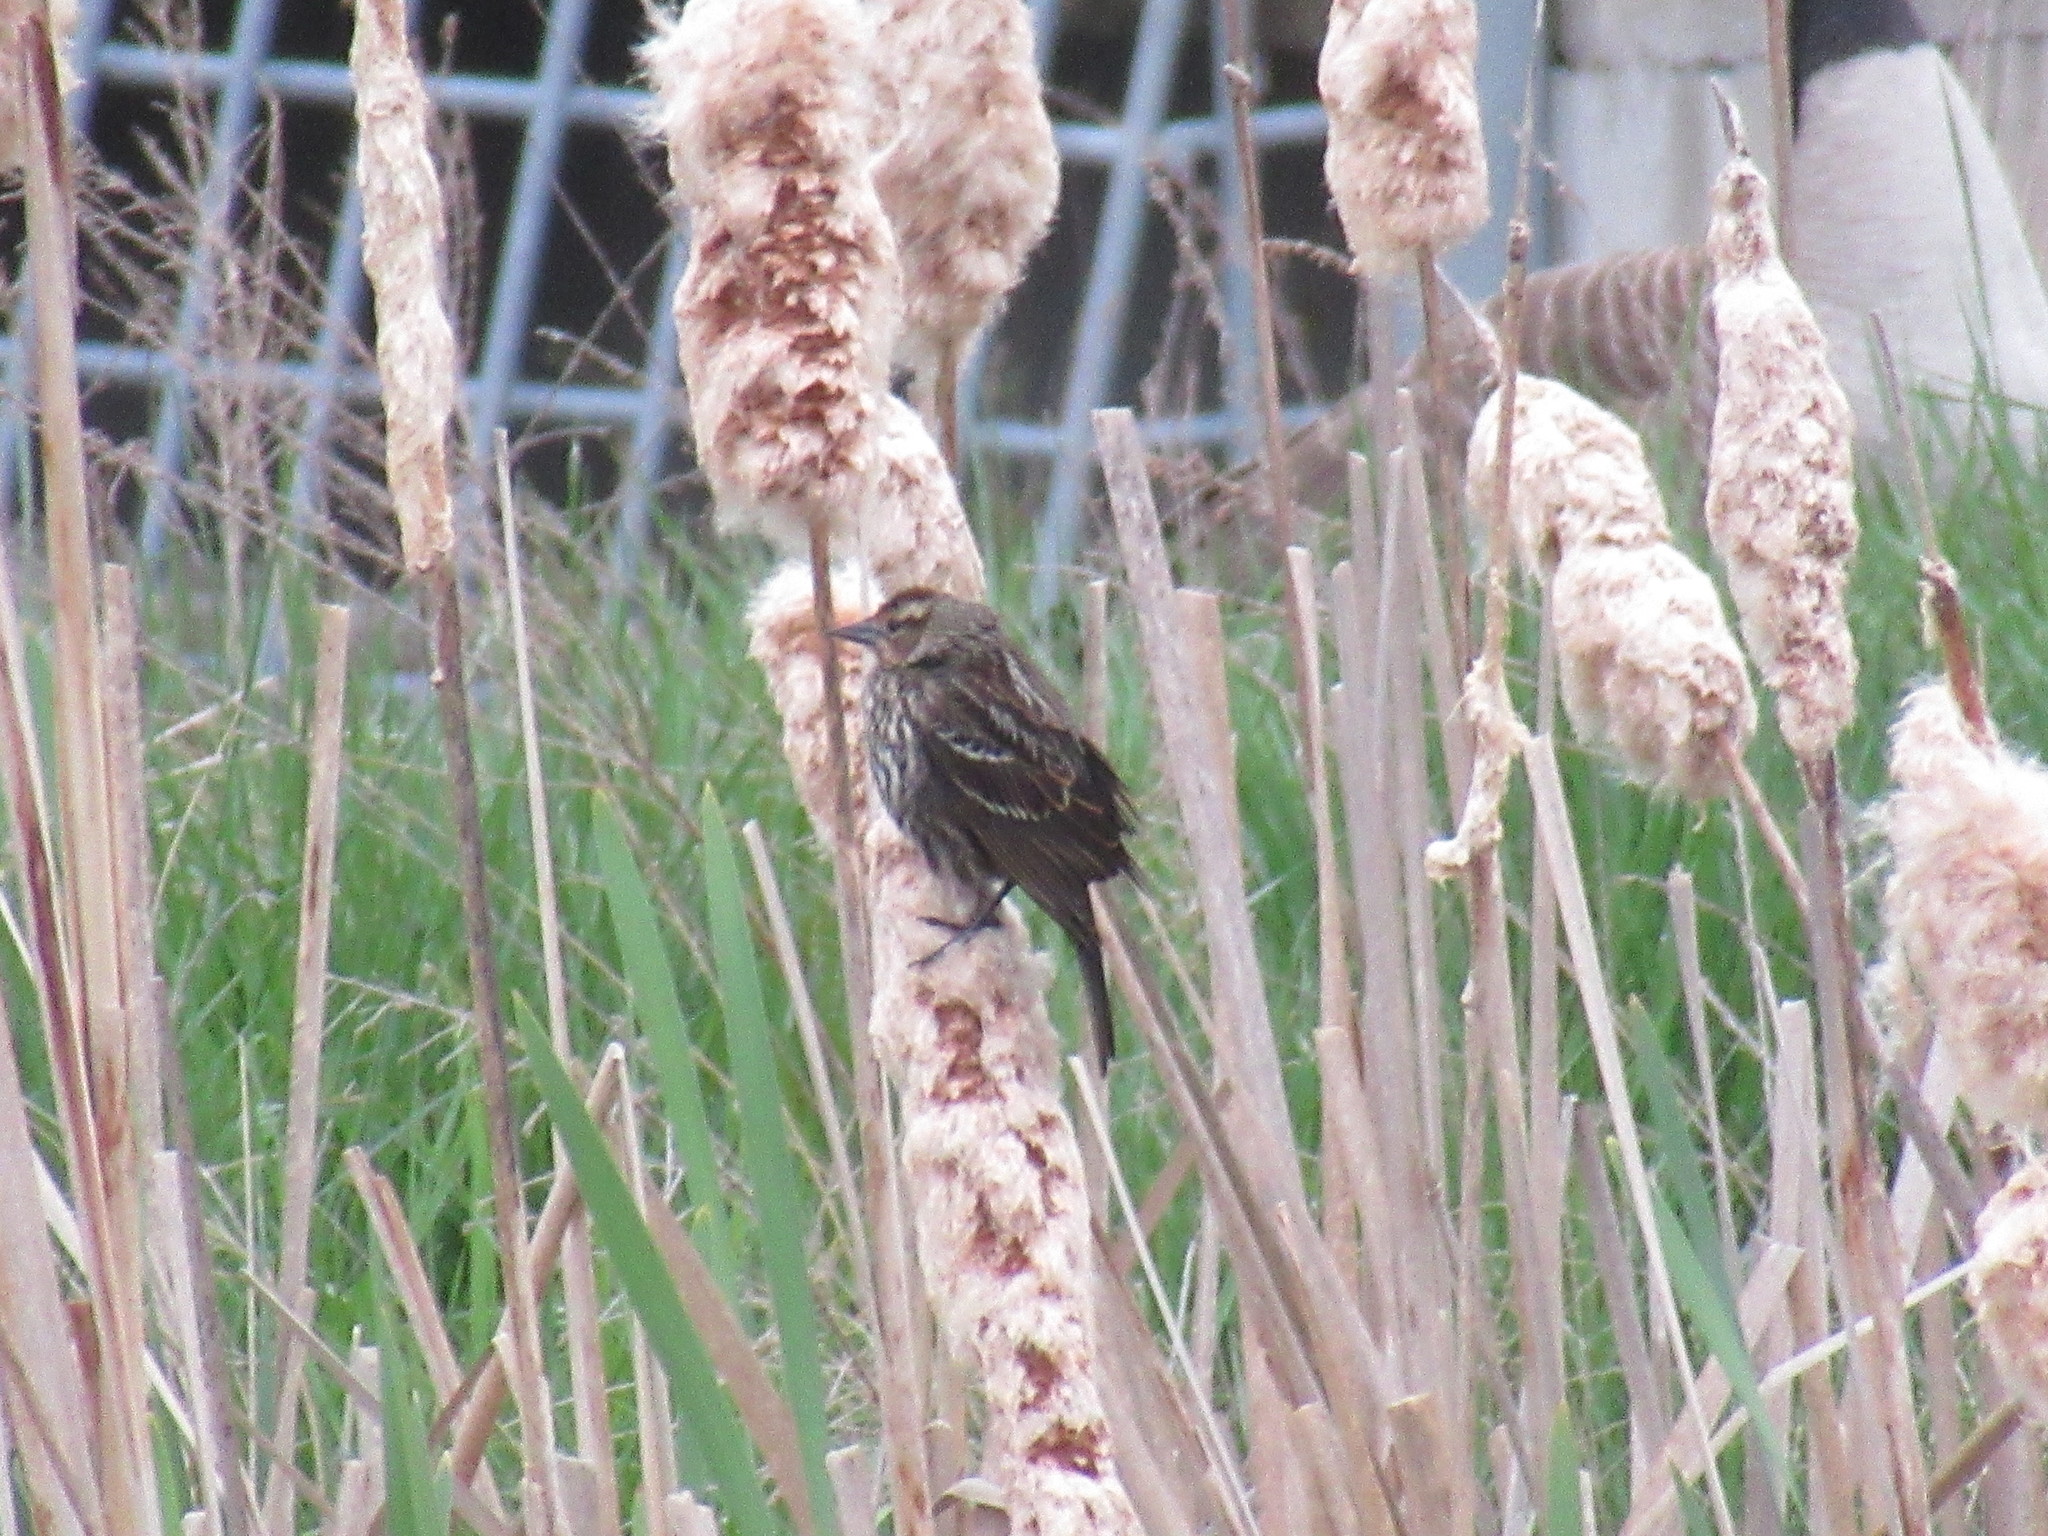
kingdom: Animalia
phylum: Chordata
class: Aves
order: Passeriformes
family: Icteridae
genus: Agelaius
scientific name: Agelaius phoeniceus
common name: Red-winged blackbird
